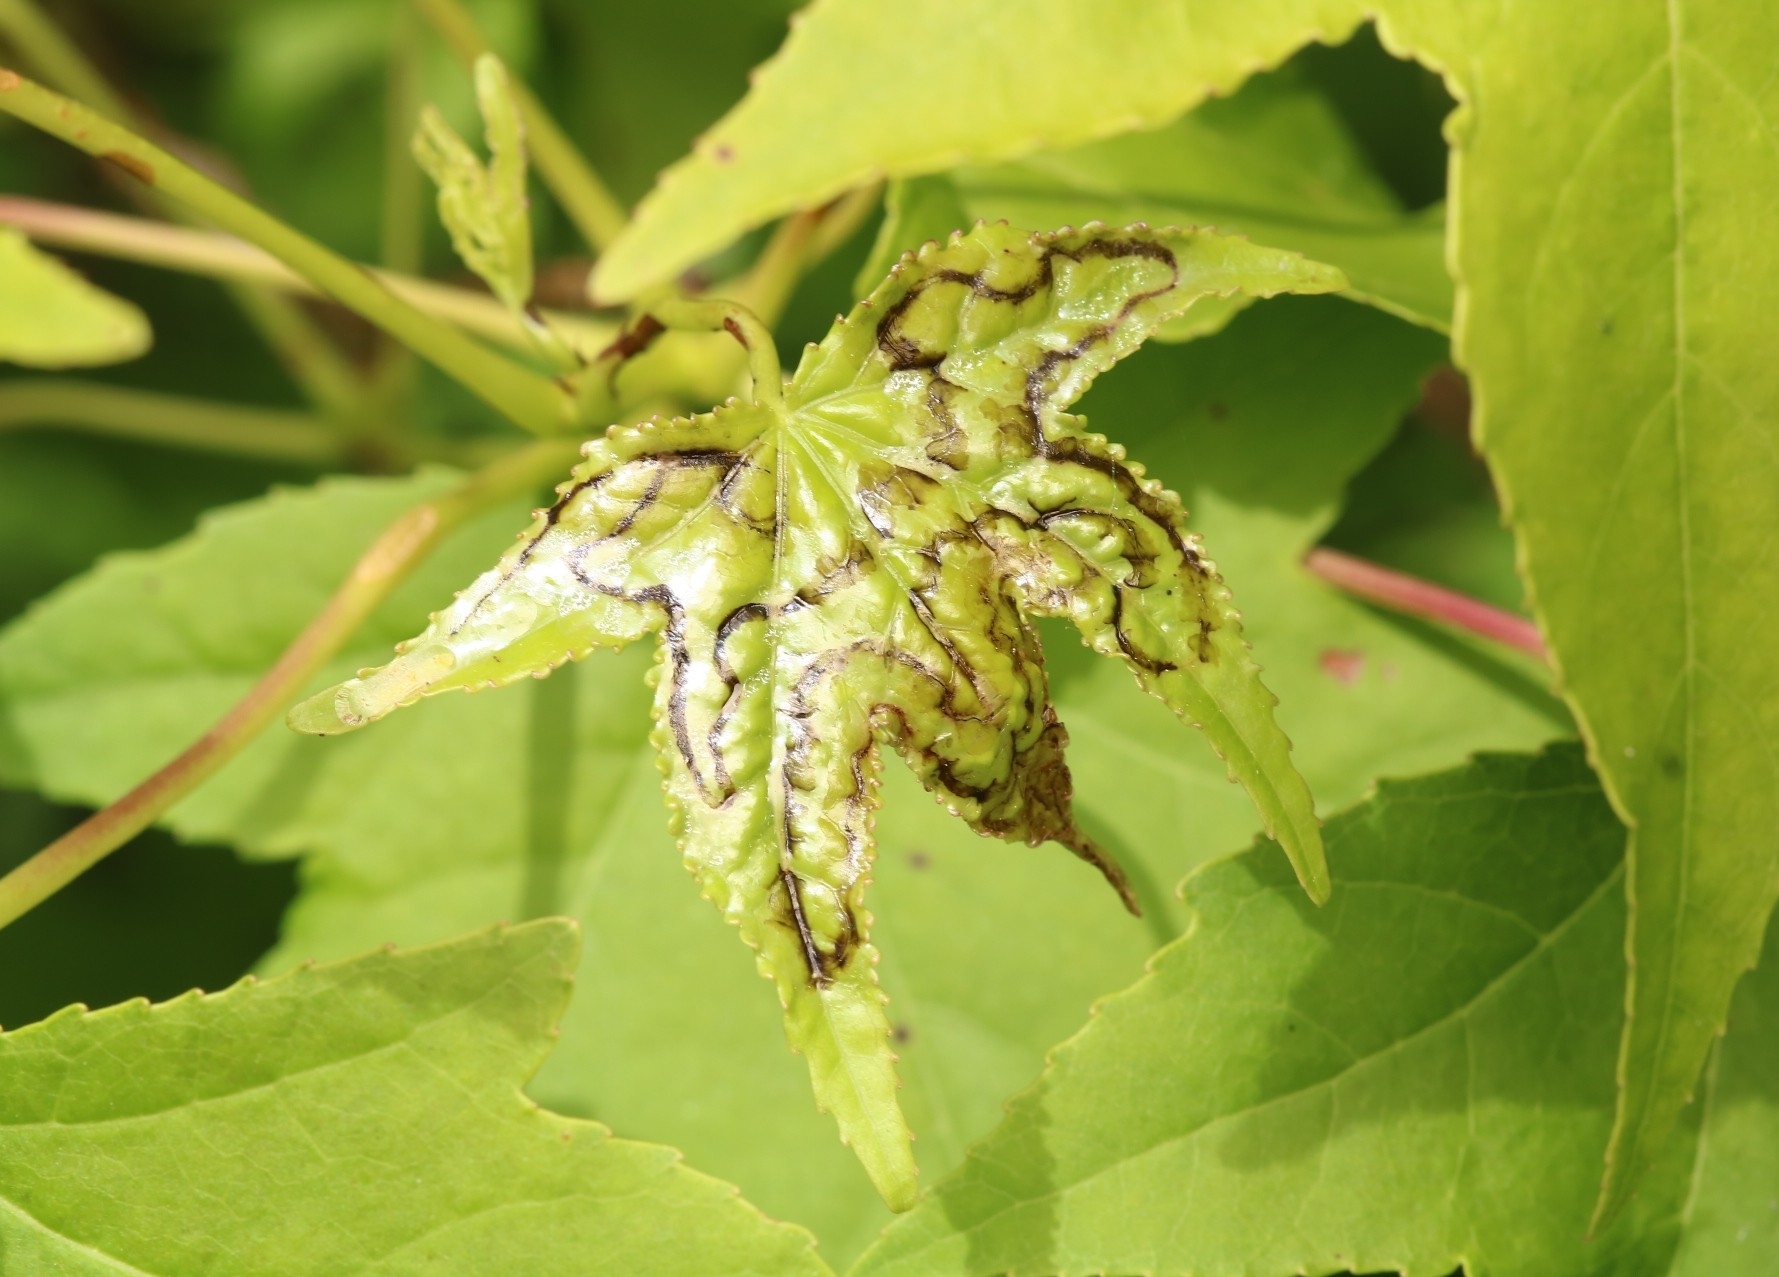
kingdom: Animalia
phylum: Arthropoda
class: Insecta
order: Lepidoptera
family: Gracillariidae
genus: Phyllocnistis
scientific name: Phyllocnistis liquidambarisella
